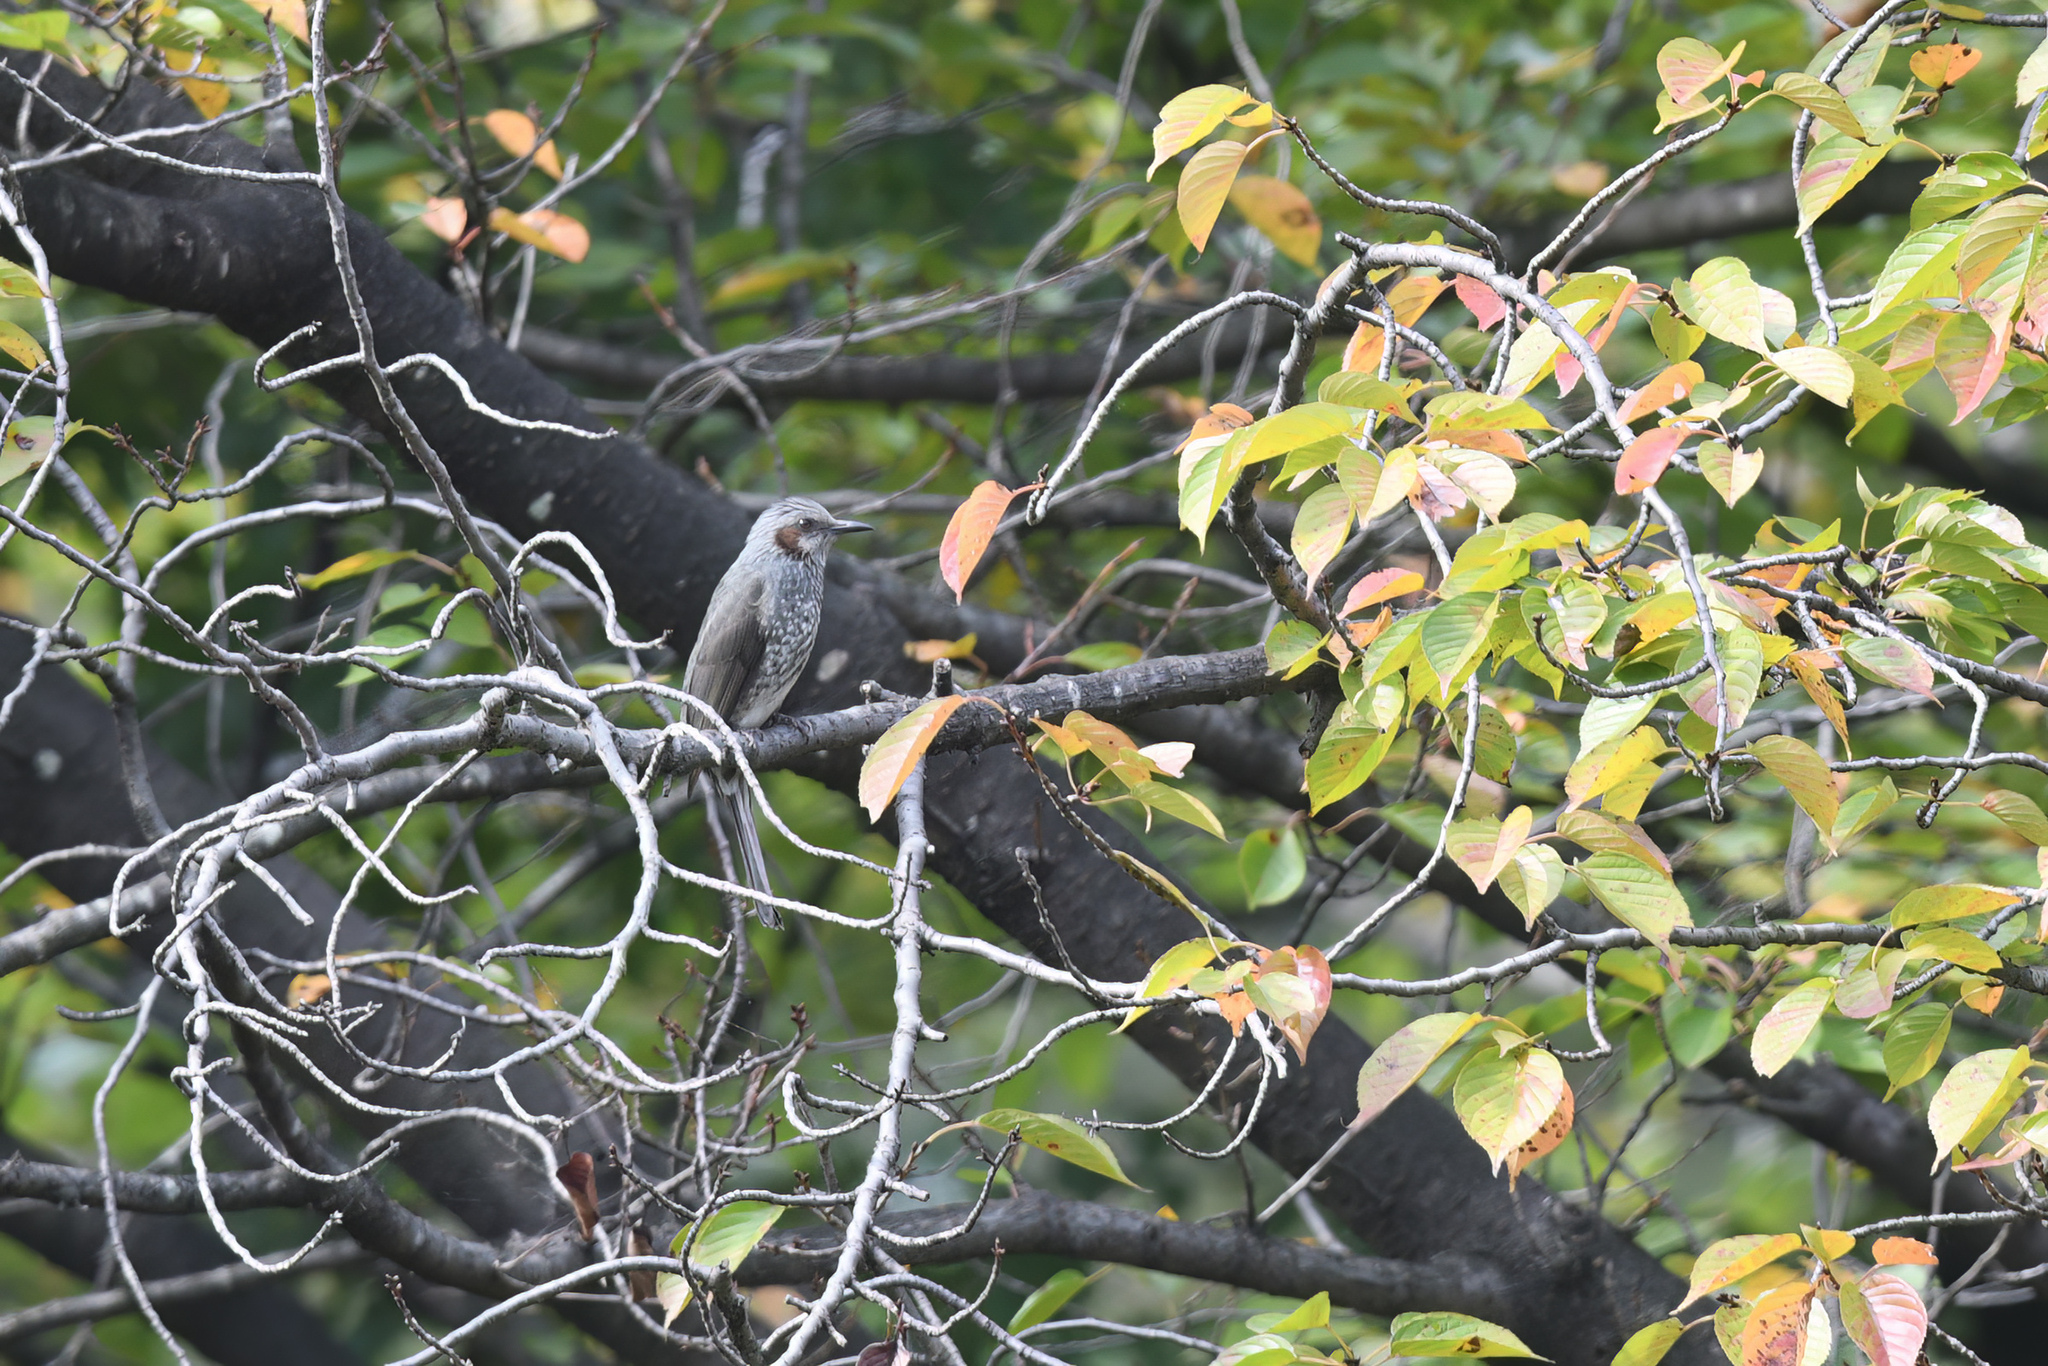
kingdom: Animalia
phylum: Chordata
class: Aves
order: Passeriformes
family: Pycnonotidae
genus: Hypsipetes
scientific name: Hypsipetes amaurotis
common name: Brown-eared bulbul
